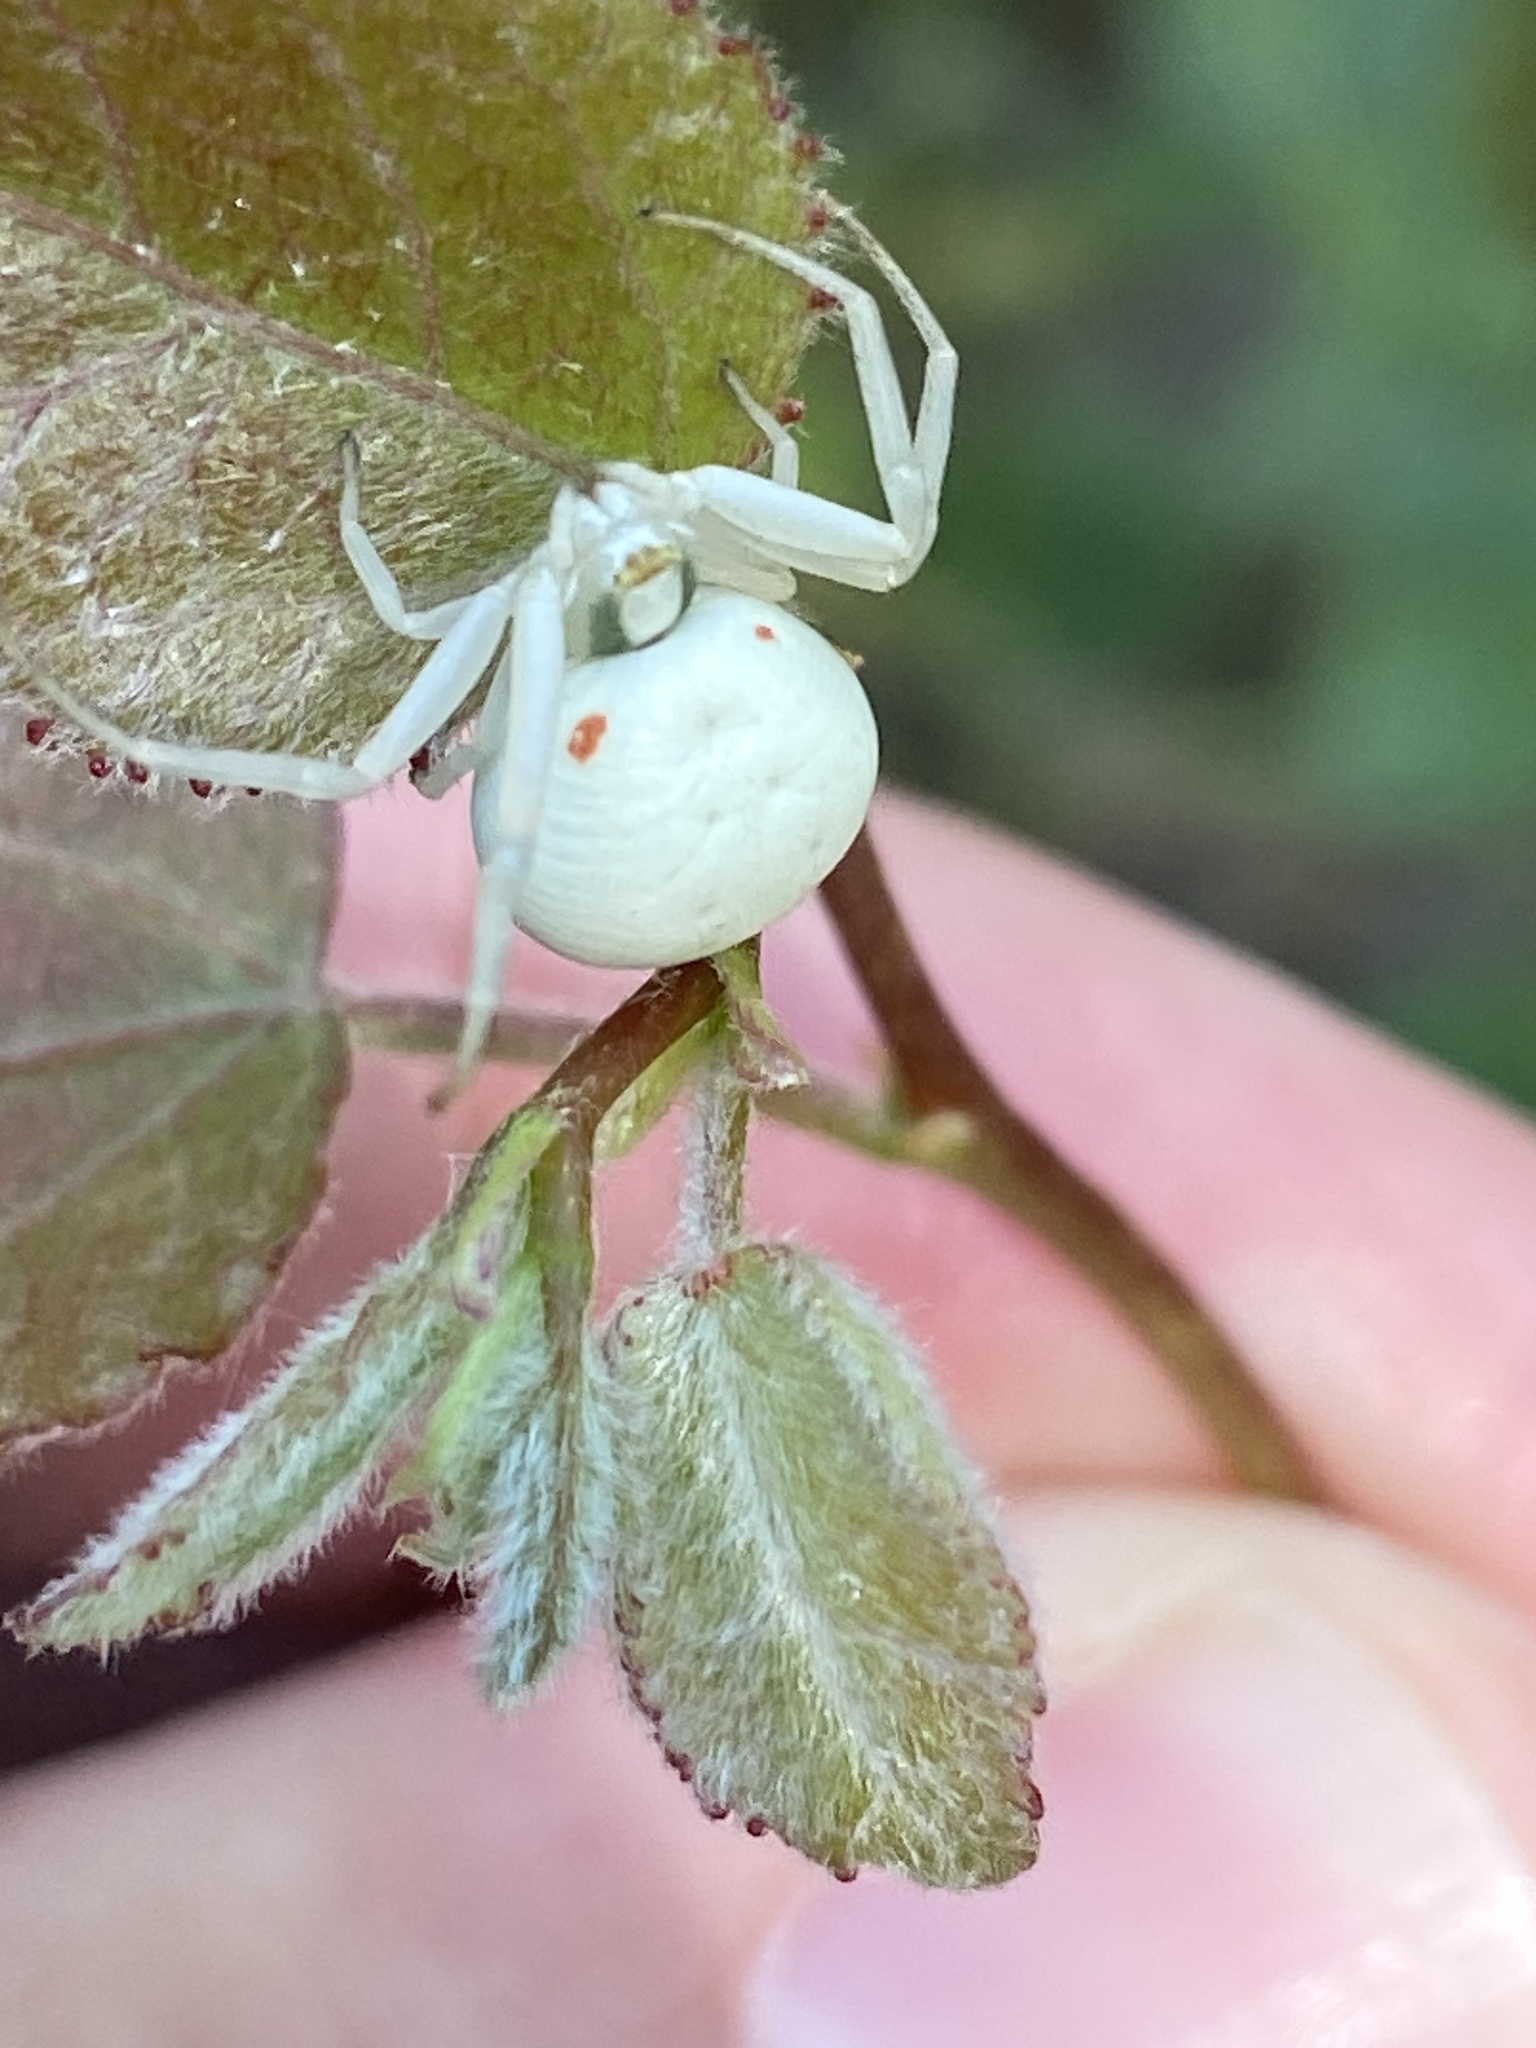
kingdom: Animalia
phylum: Arthropoda
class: Arachnida
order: Araneae
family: Thomisidae
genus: Misumena
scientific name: Misumena vatia
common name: Goldenrod crab spider
